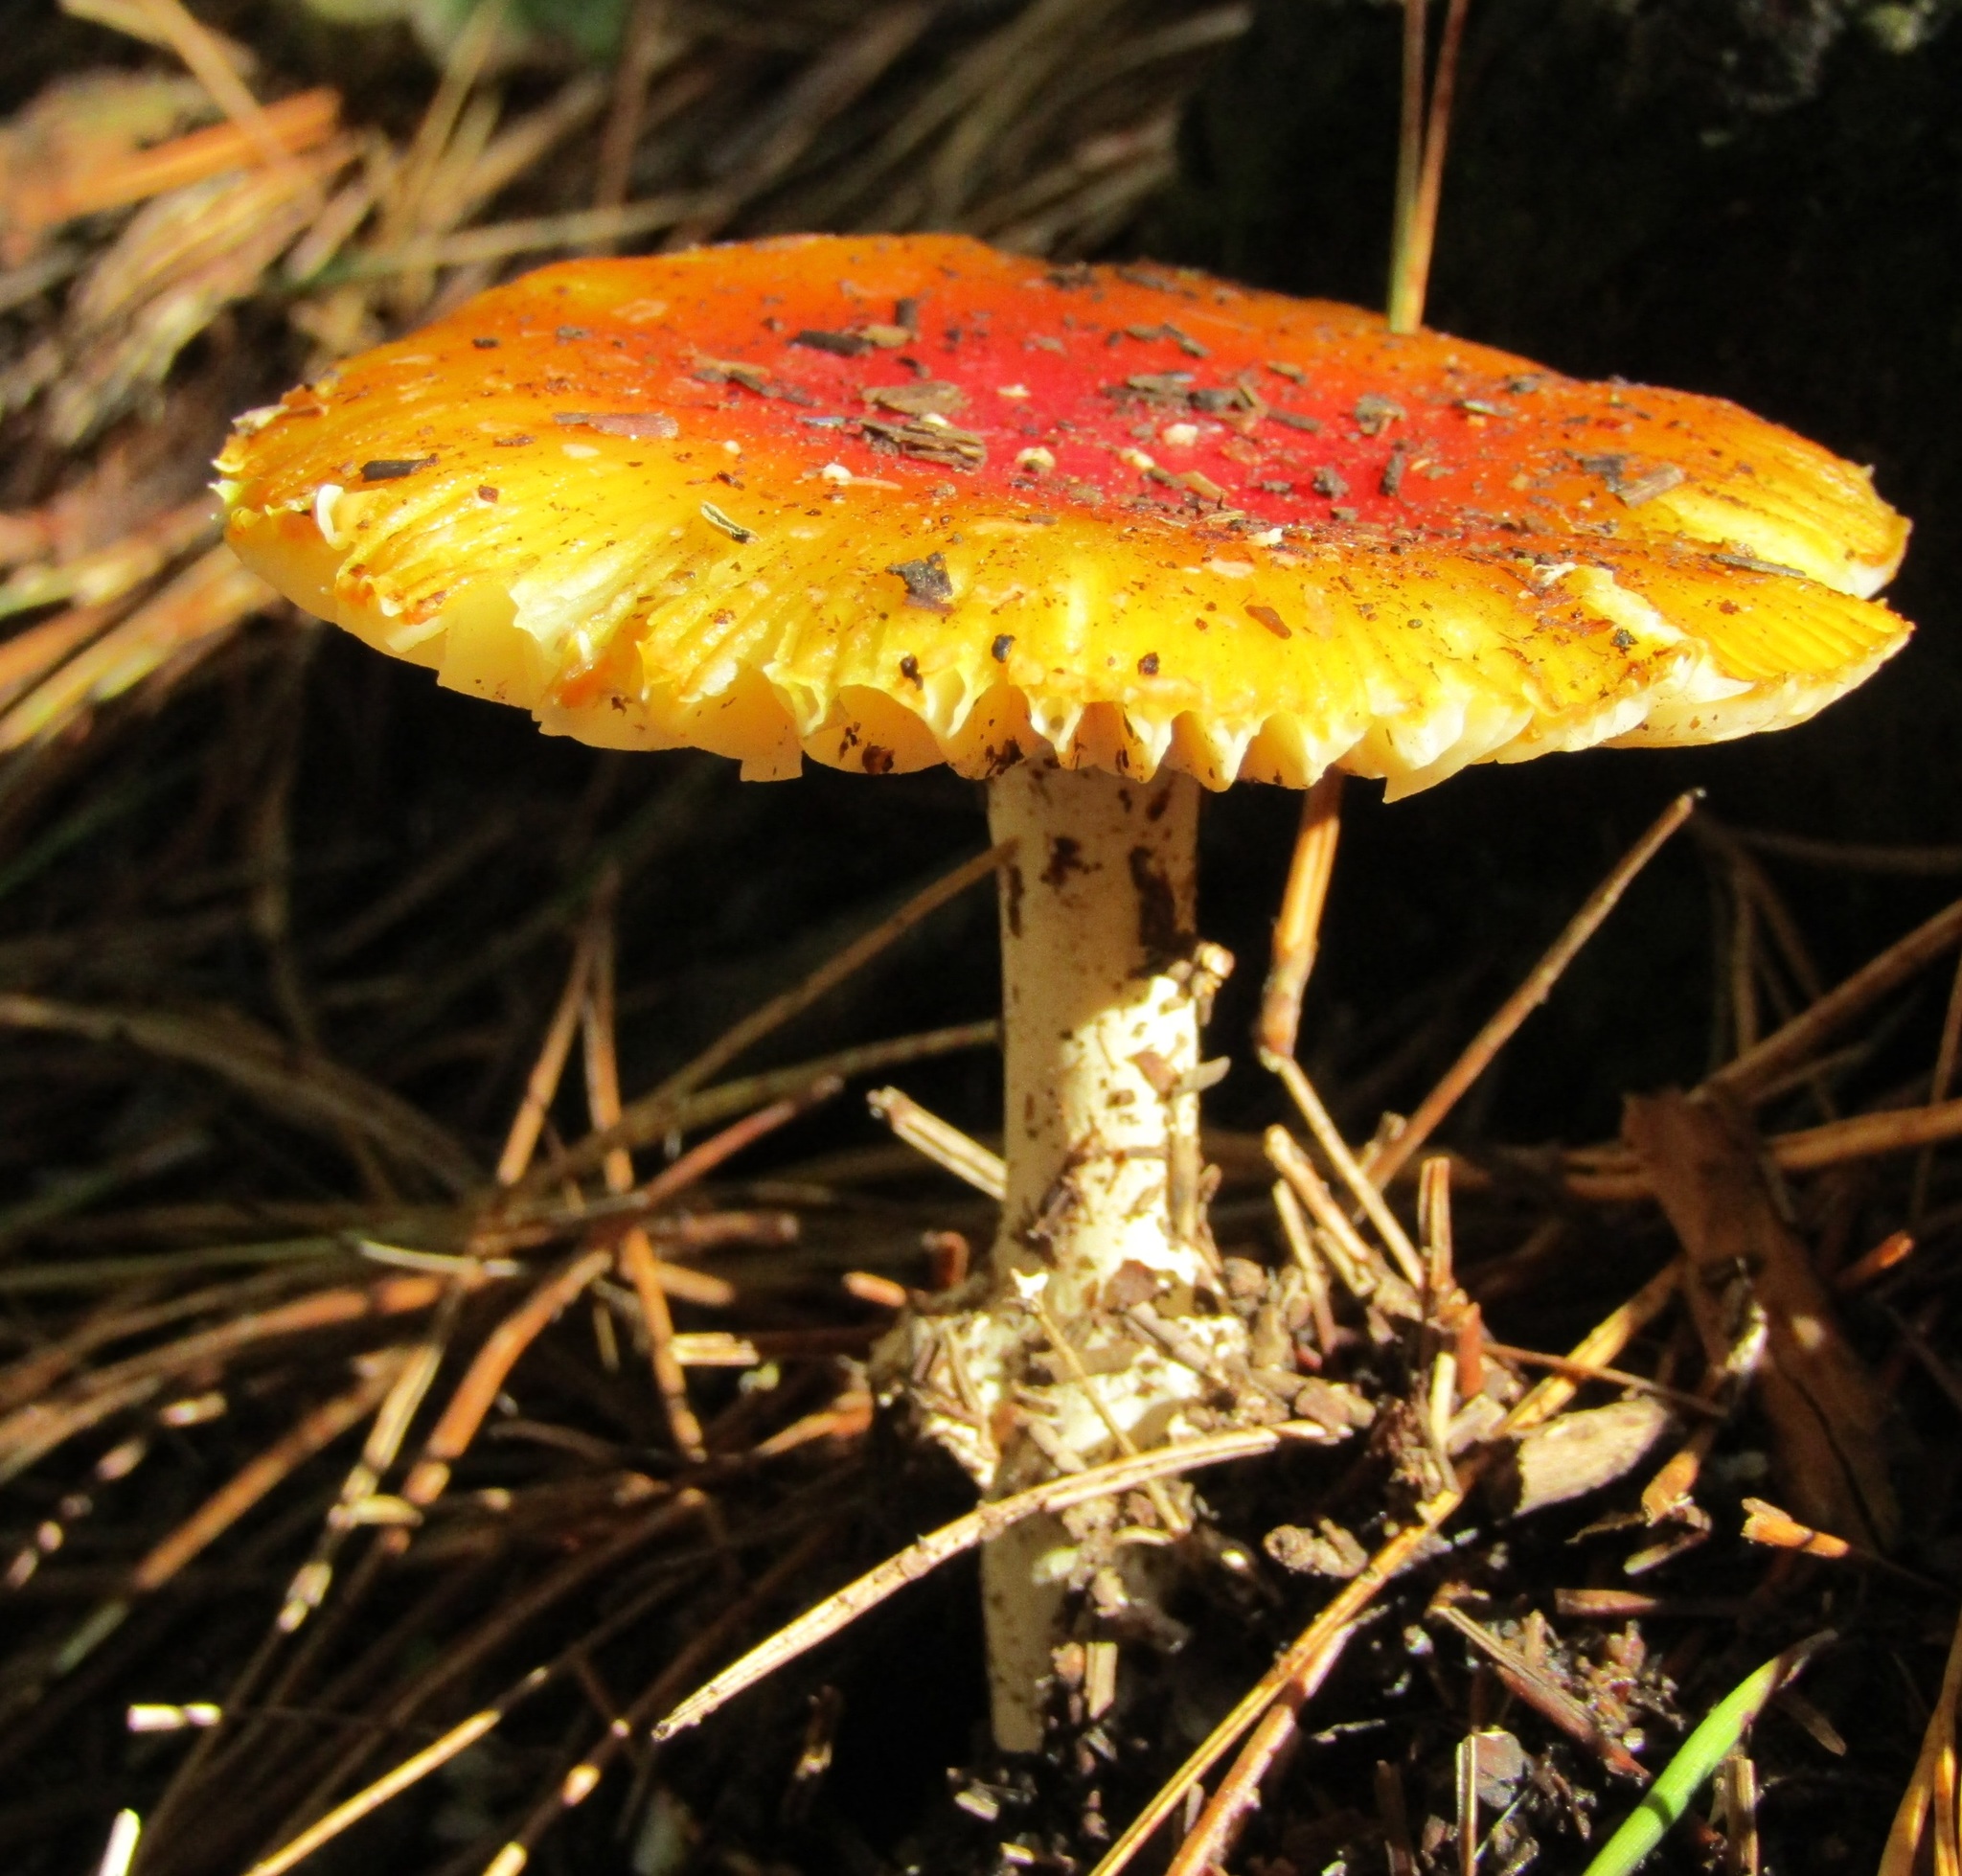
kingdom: Fungi
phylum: Basidiomycota
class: Agaricomycetes
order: Agaricales
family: Amanitaceae
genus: Amanita
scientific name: Amanita muscaria
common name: Fly agaric
